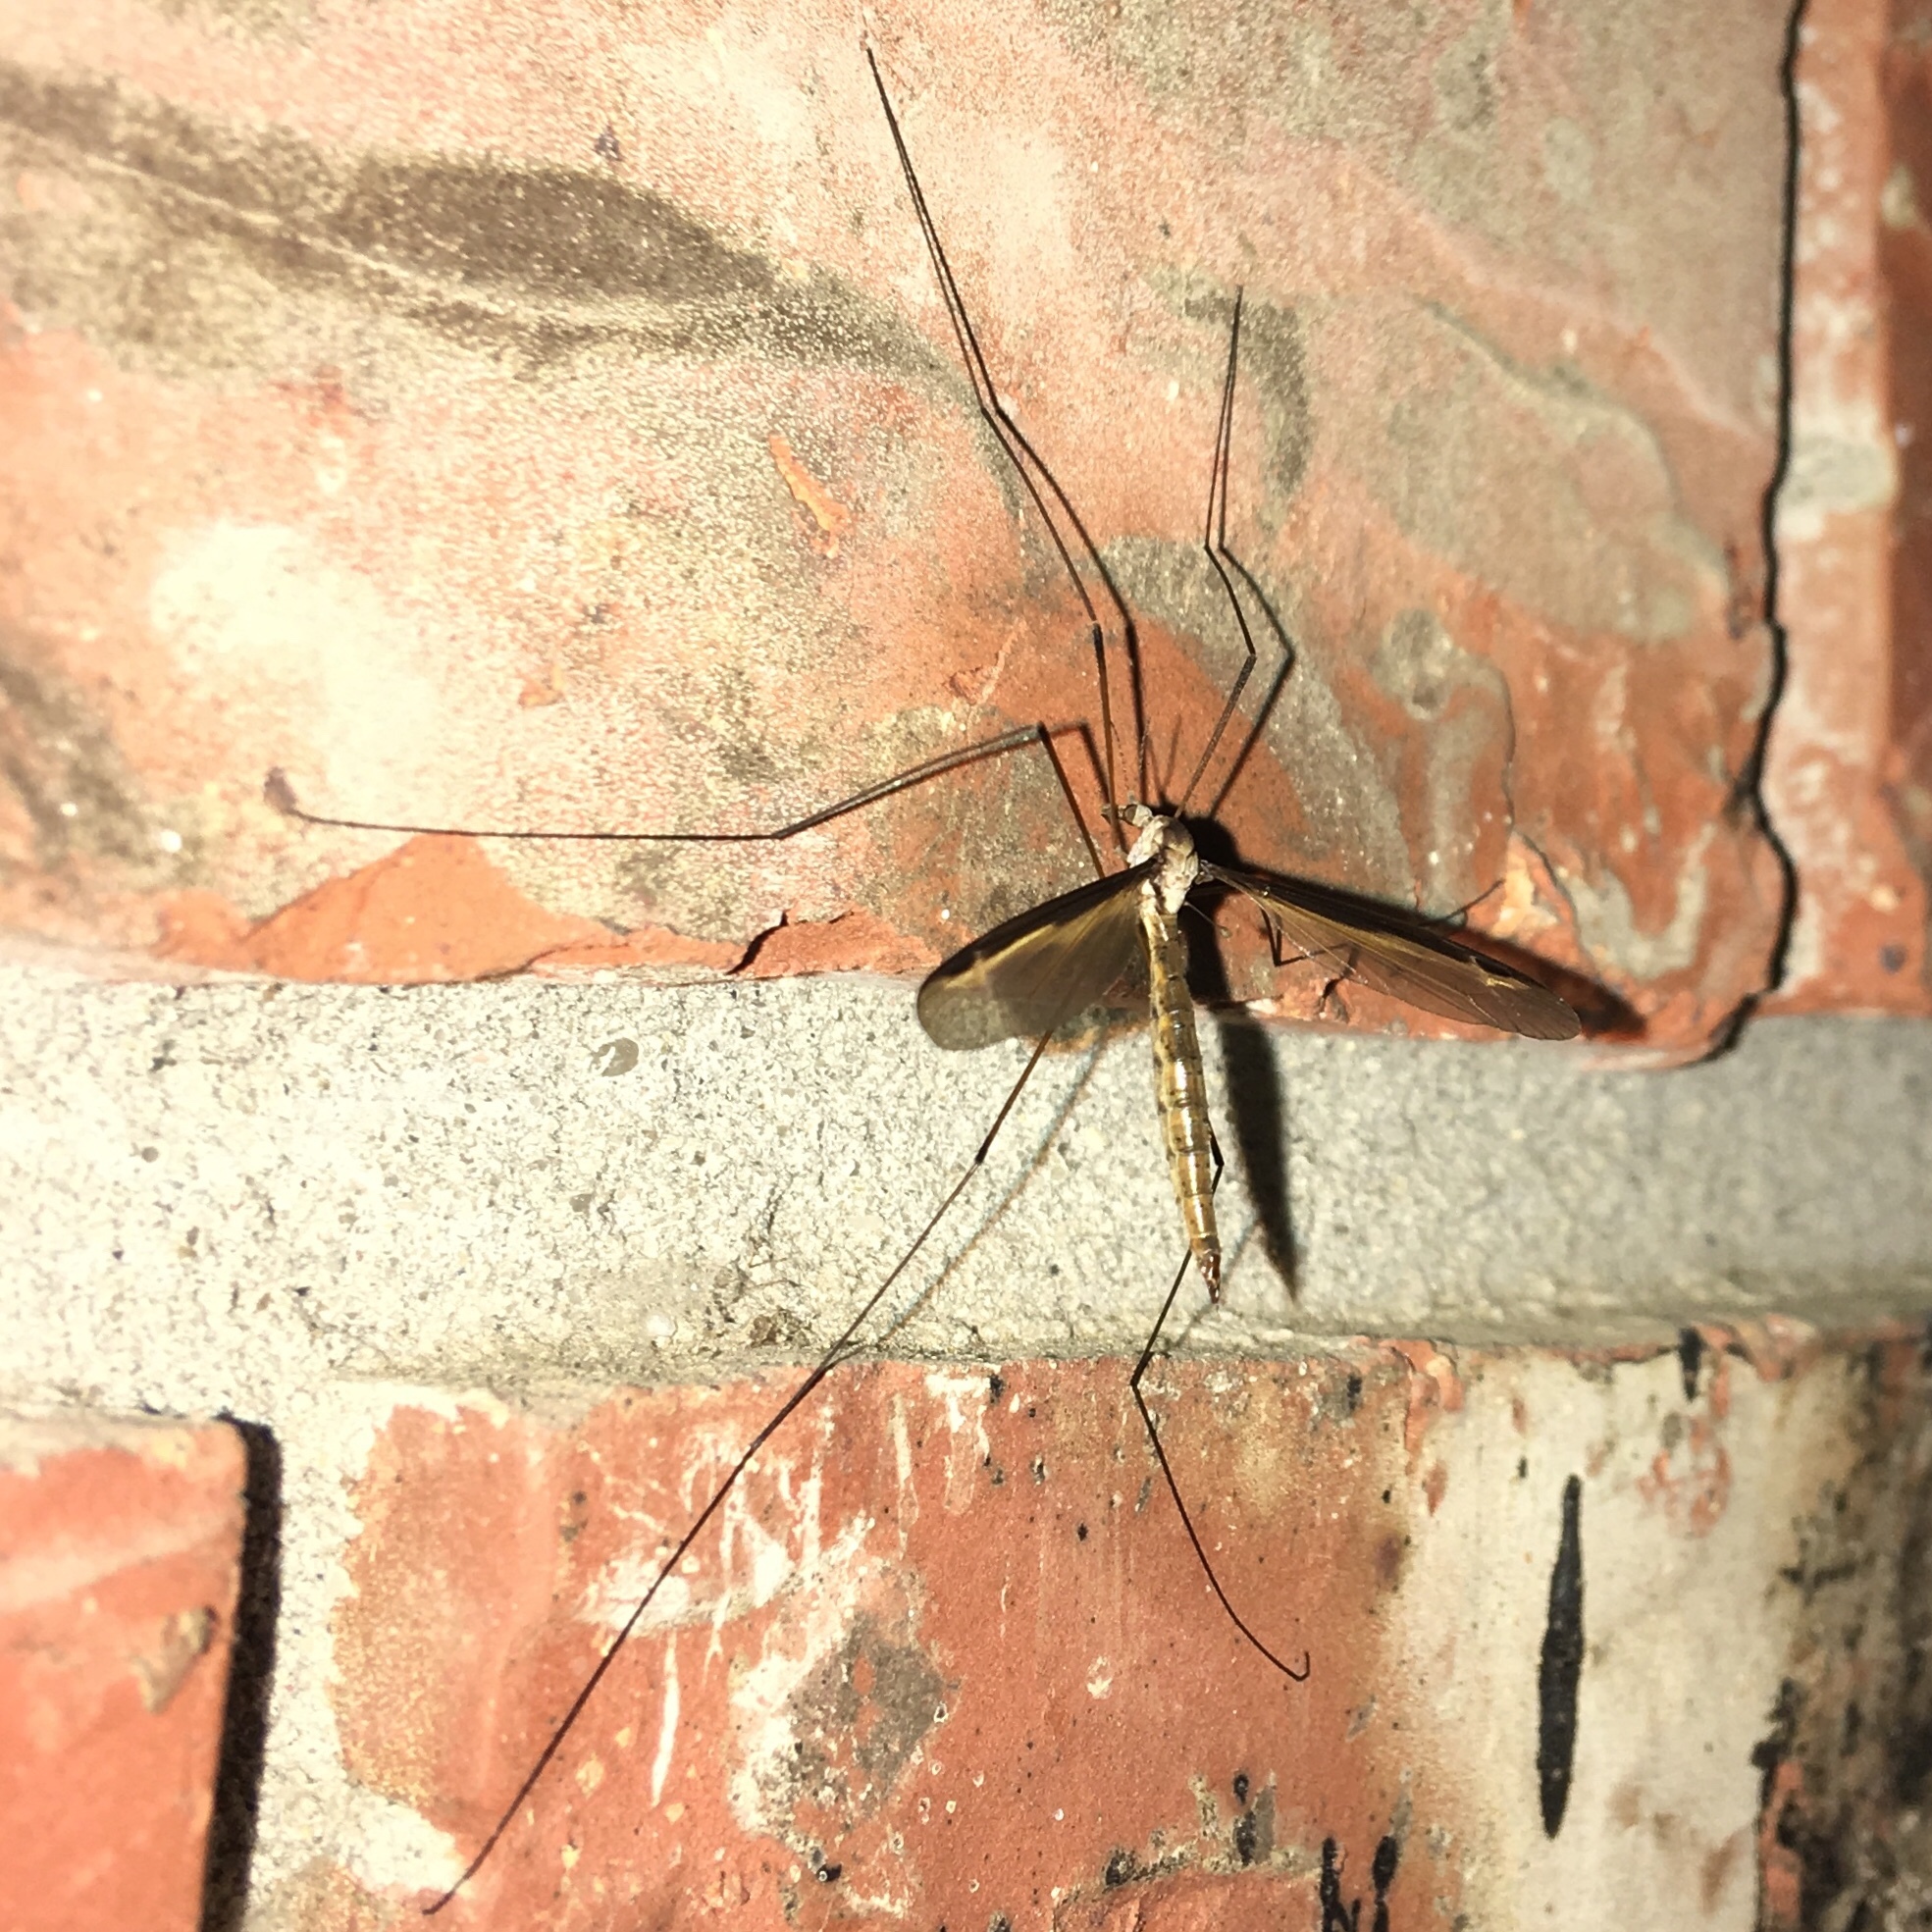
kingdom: Animalia
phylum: Arthropoda
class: Insecta
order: Diptera
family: Tipulidae
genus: Tipula
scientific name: Tipula sayi
